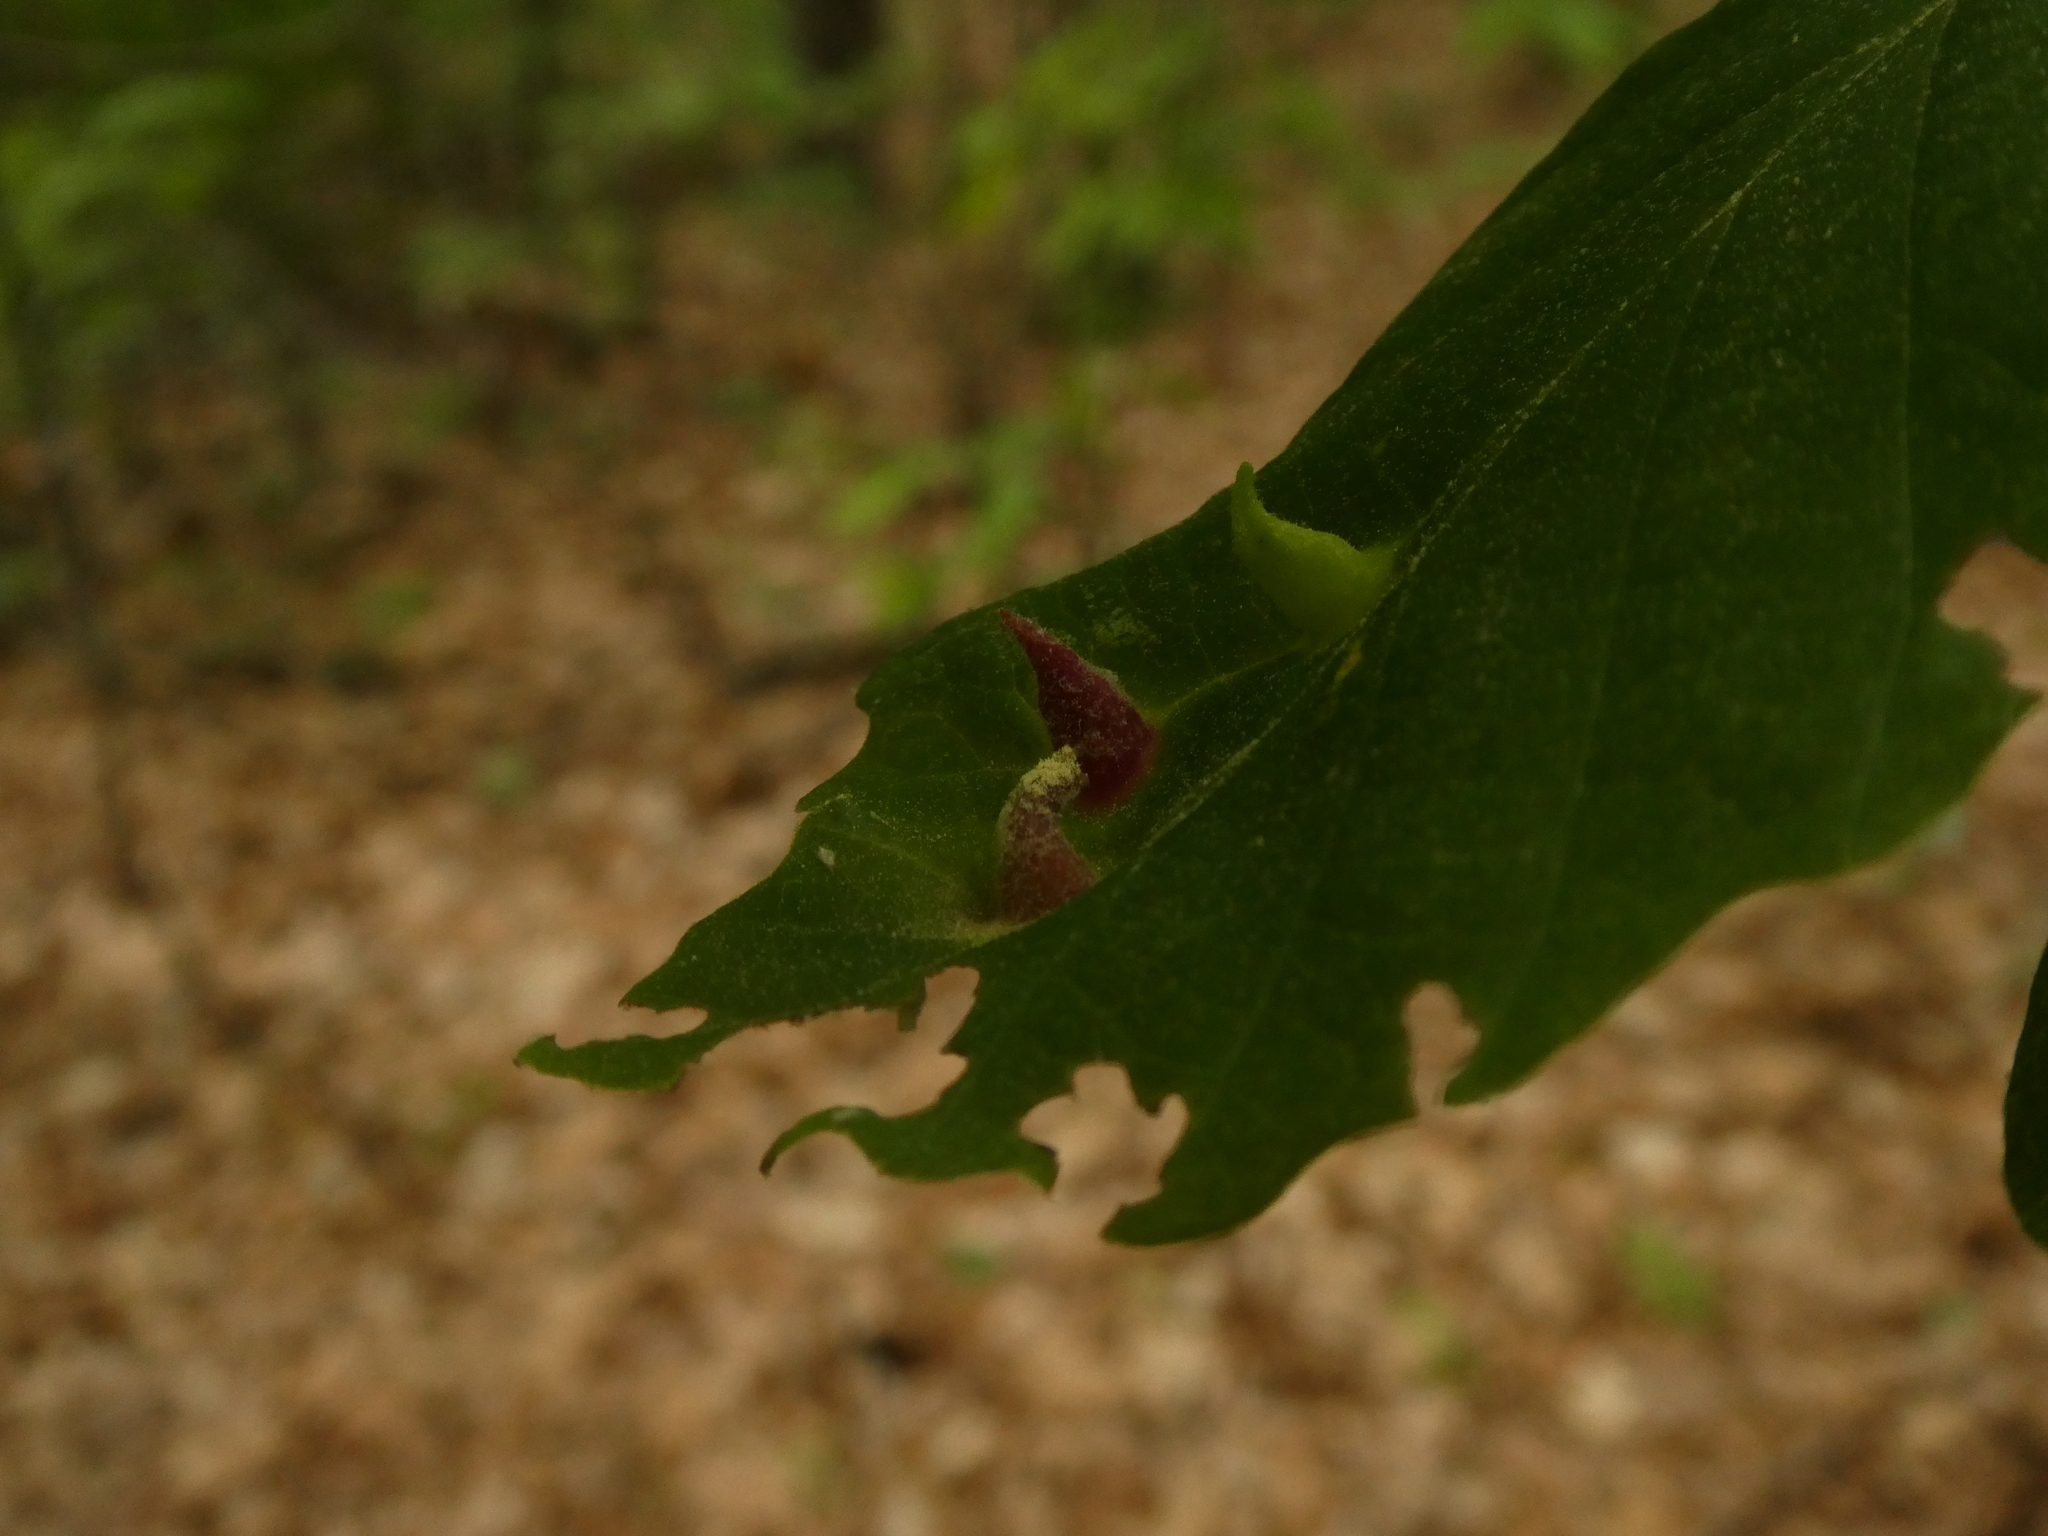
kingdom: Animalia
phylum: Arthropoda
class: Insecta
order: Hemiptera
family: Aphididae
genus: Hormaphis
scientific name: Hormaphis hamamelidis
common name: Witch-hazel cone gall aphid
